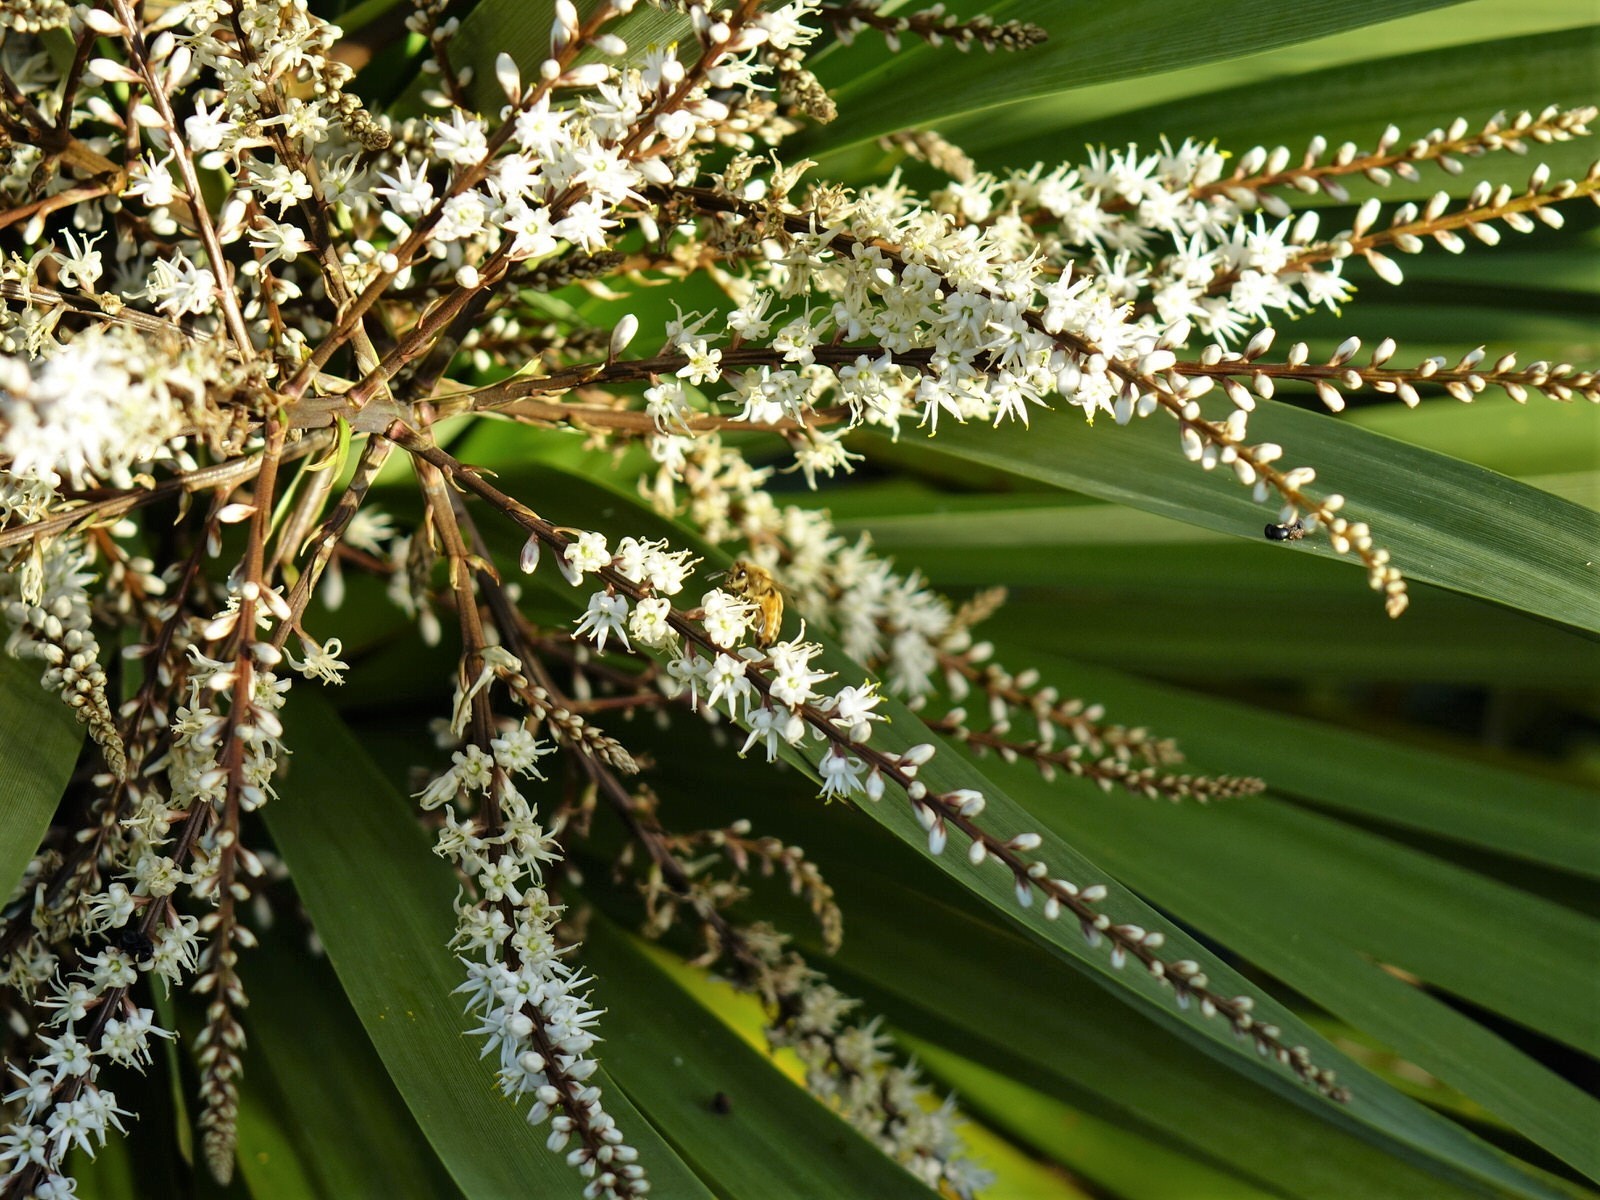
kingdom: Plantae
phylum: Tracheophyta
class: Liliopsida
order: Asparagales
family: Asparagaceae
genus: Cordyline
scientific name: Cordyline australis
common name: Cabbage-palm
